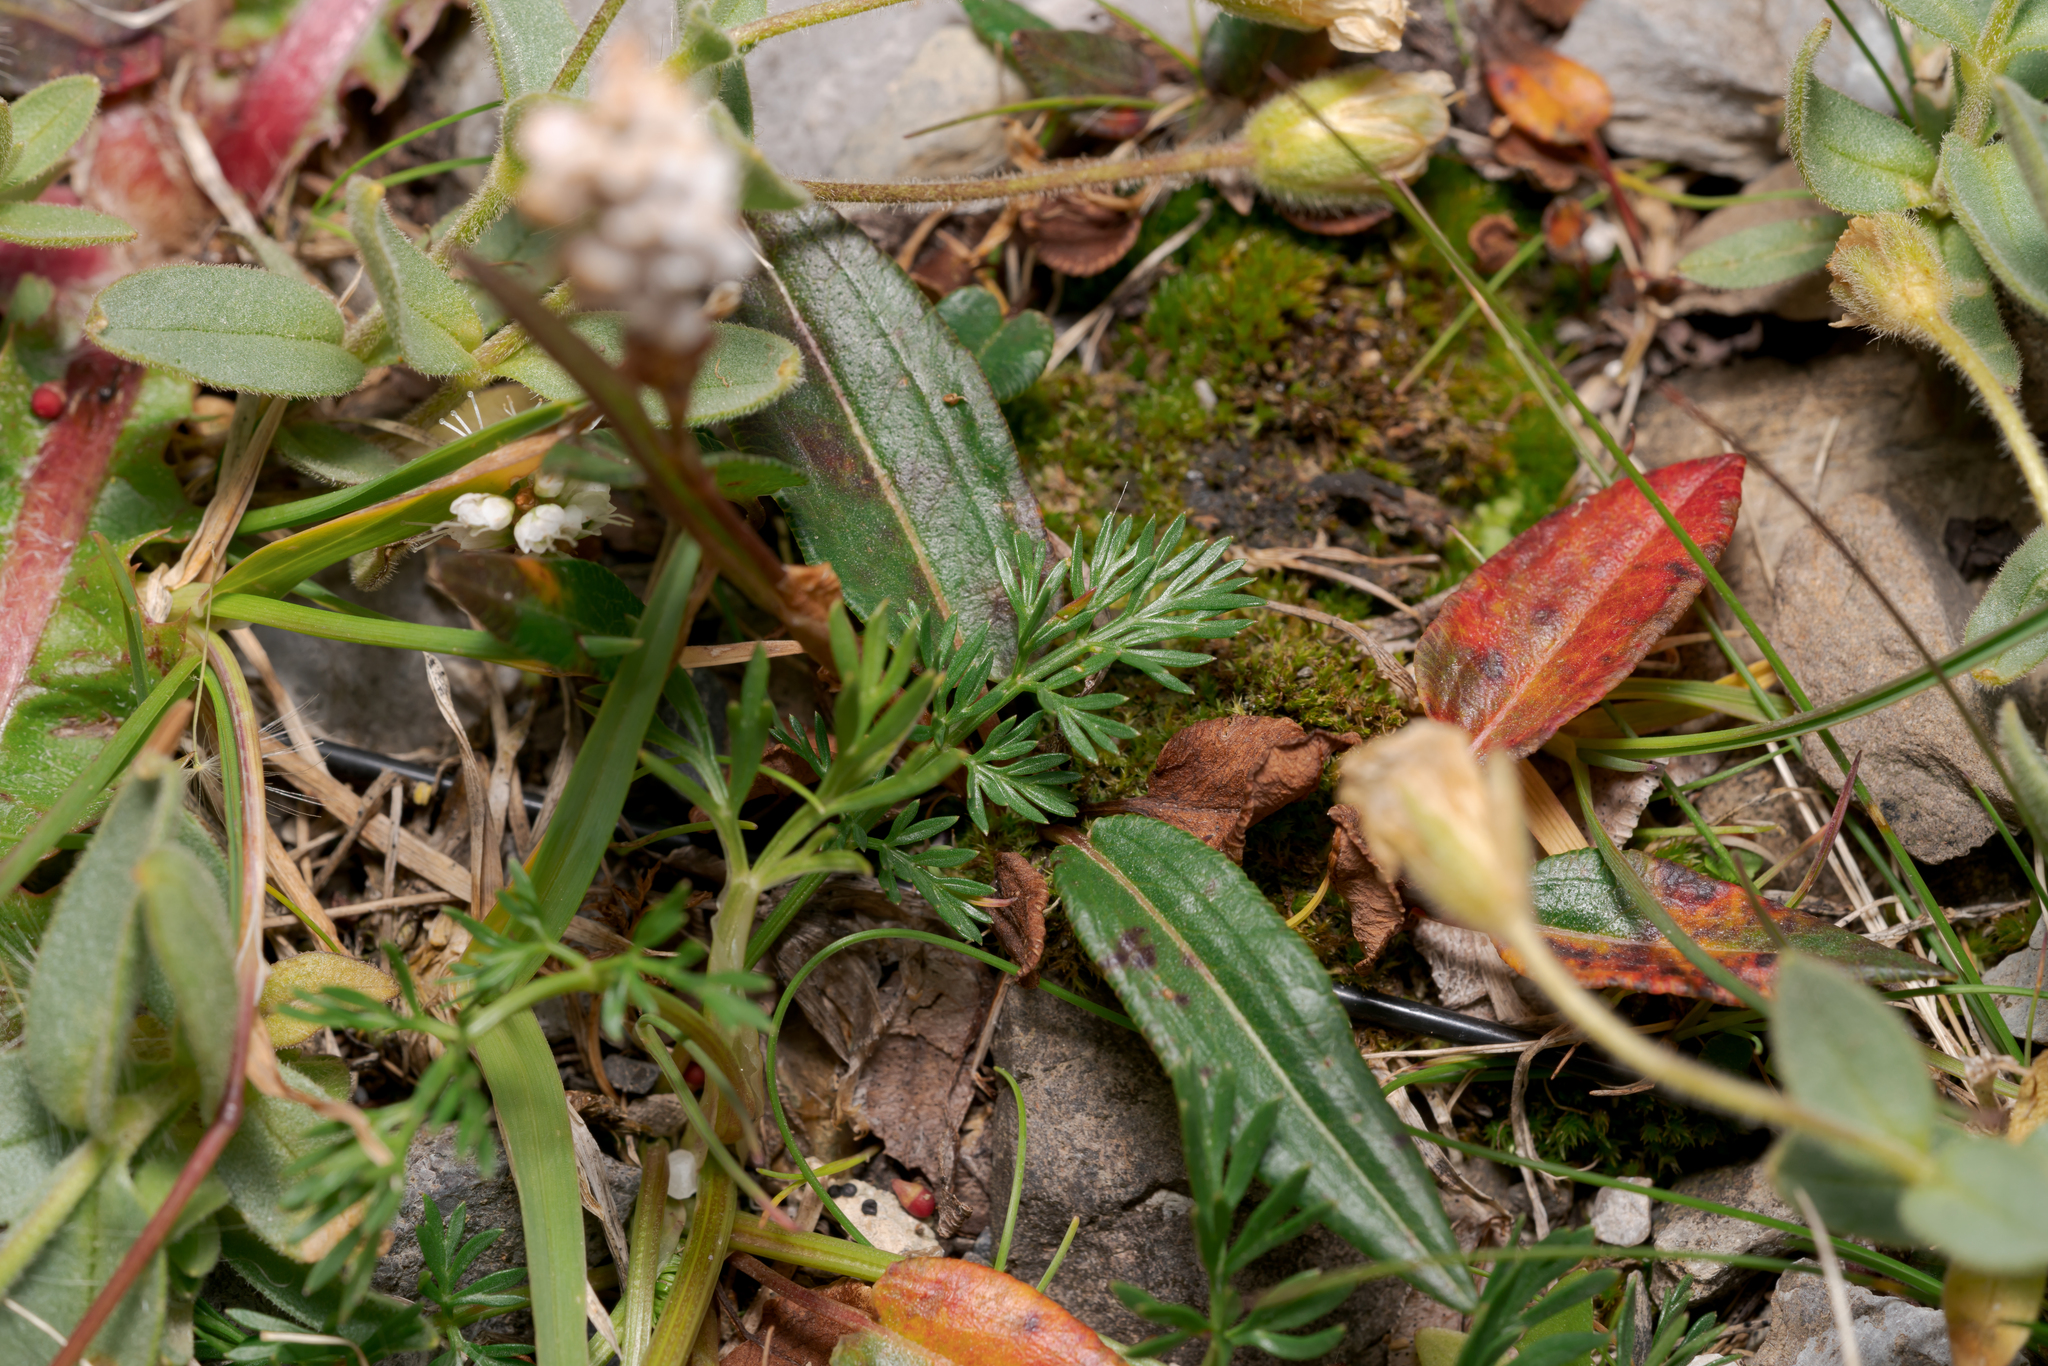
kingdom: Plantae
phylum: Tracheophyta
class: Magnoliopsida
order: Apiales
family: Apiaceae
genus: Pachypleurum
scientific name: Pachypleurum mutellinoides
